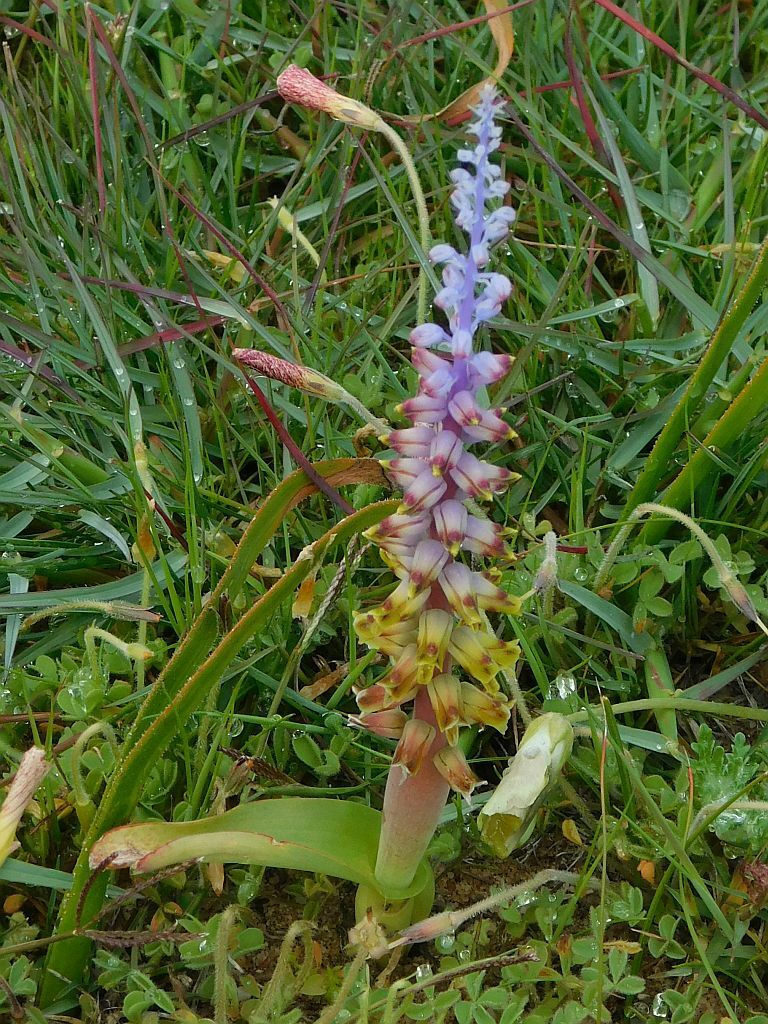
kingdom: Plantae
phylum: Tracheophyta
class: Liliopsida
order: Asparagales
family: Asparagaceae
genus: Lachenalia
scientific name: Lachenalia mutabilis
